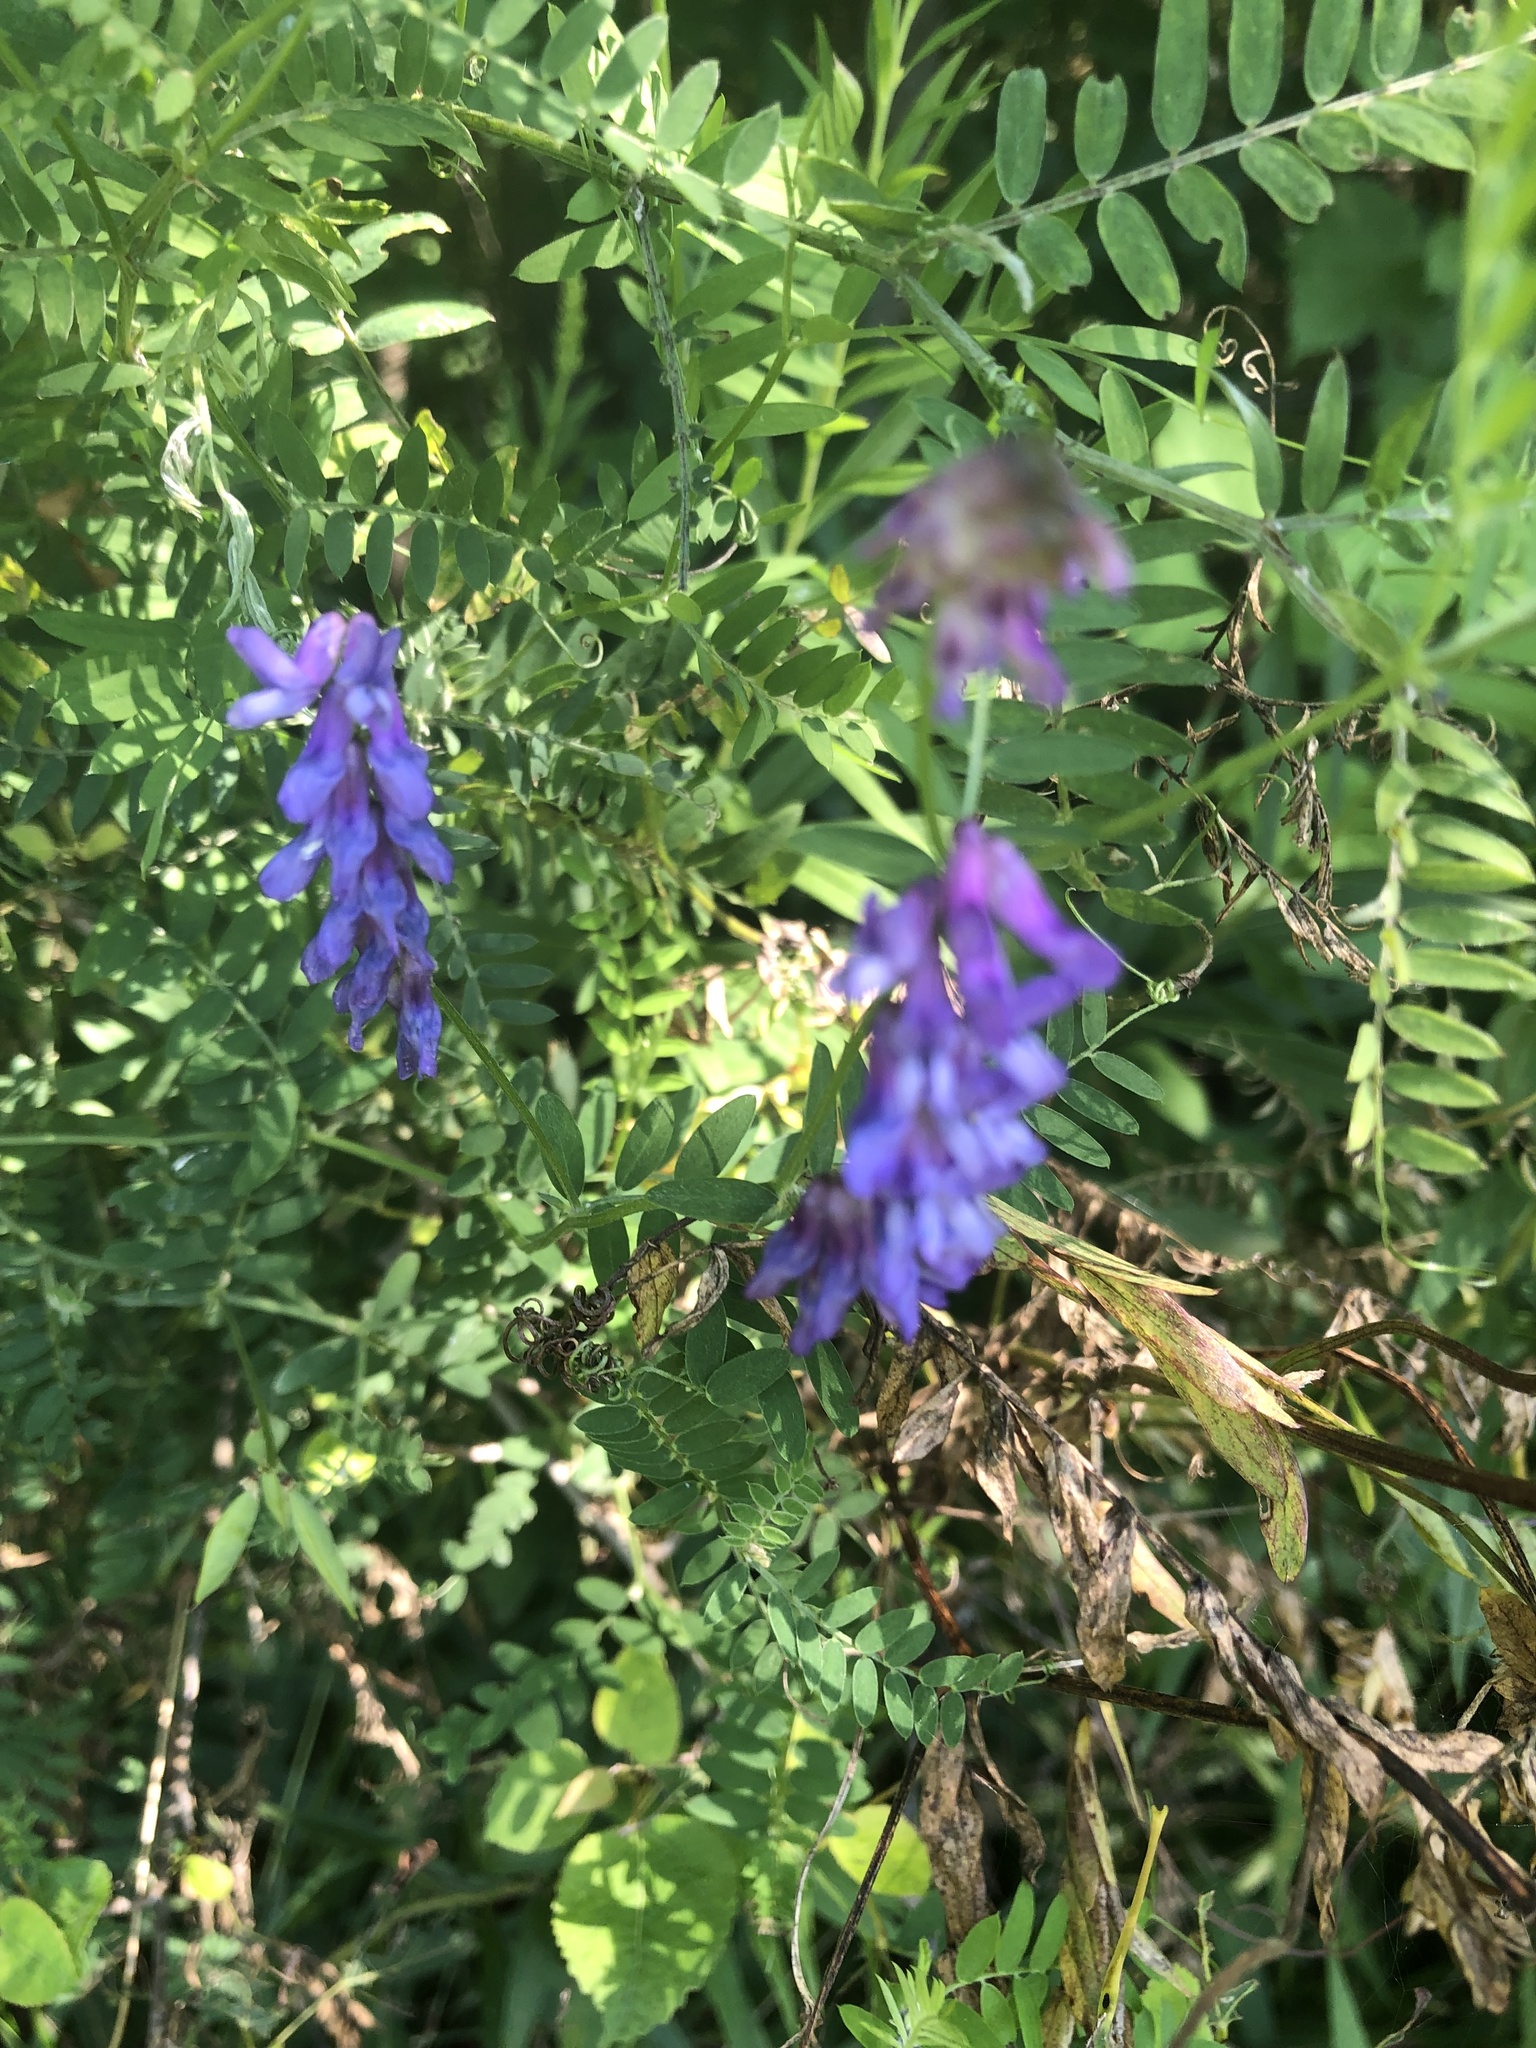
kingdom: Plantae
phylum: Tracheophyta
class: Magnoliopsida
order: Fabales
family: Fabaceae
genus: Vicia
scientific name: Vicia cracca
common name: Bird vetch
